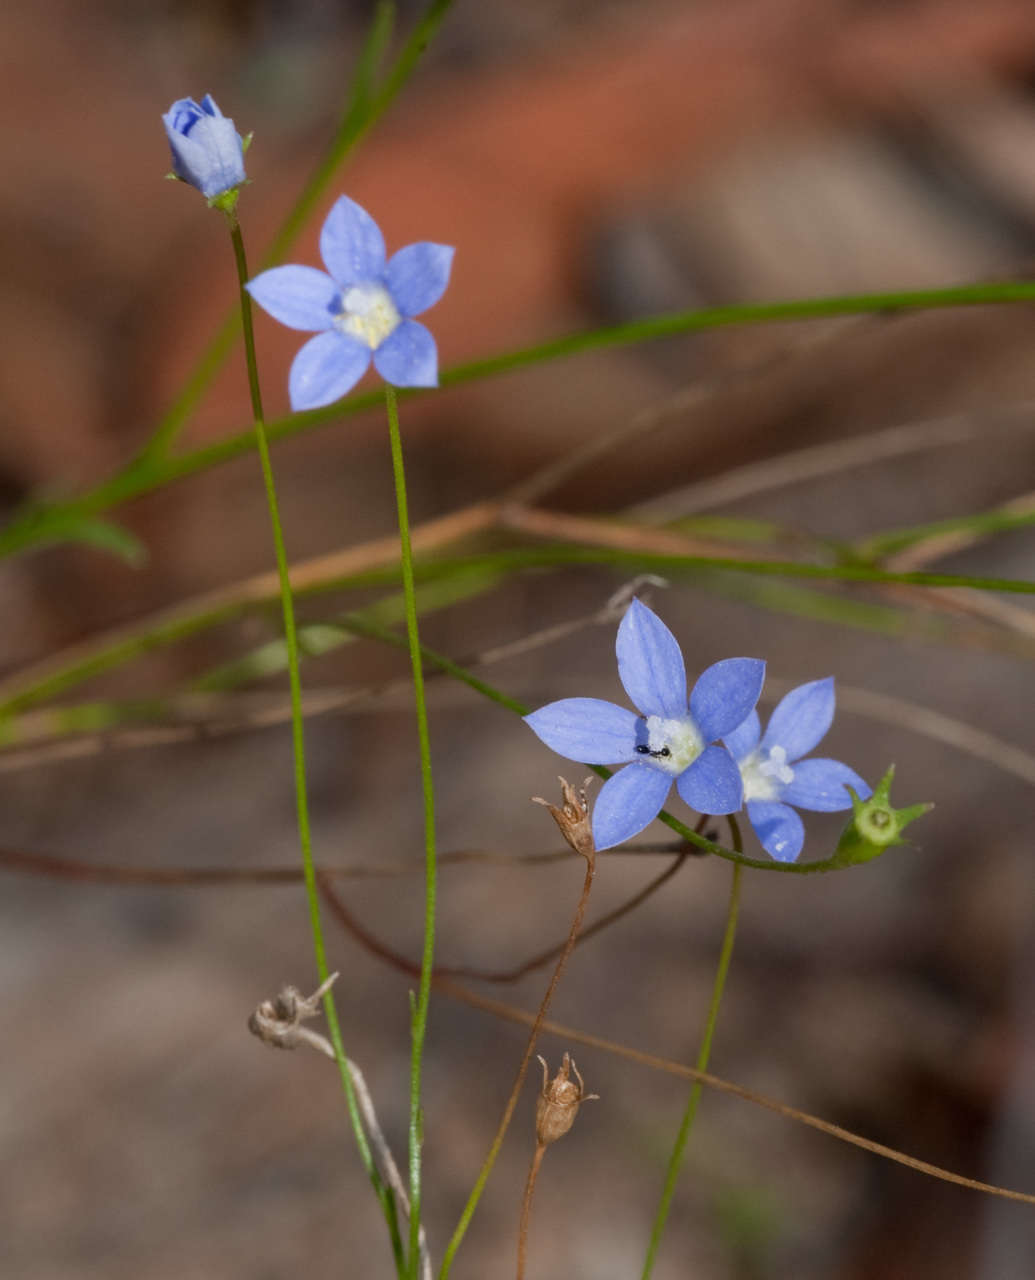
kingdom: Plantae
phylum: Tracheophyta
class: Magnoliopsida
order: Asterales
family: Campanulaceae
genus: Wahlenbergia
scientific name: Wahlenbergia gracilis
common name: Harebell
